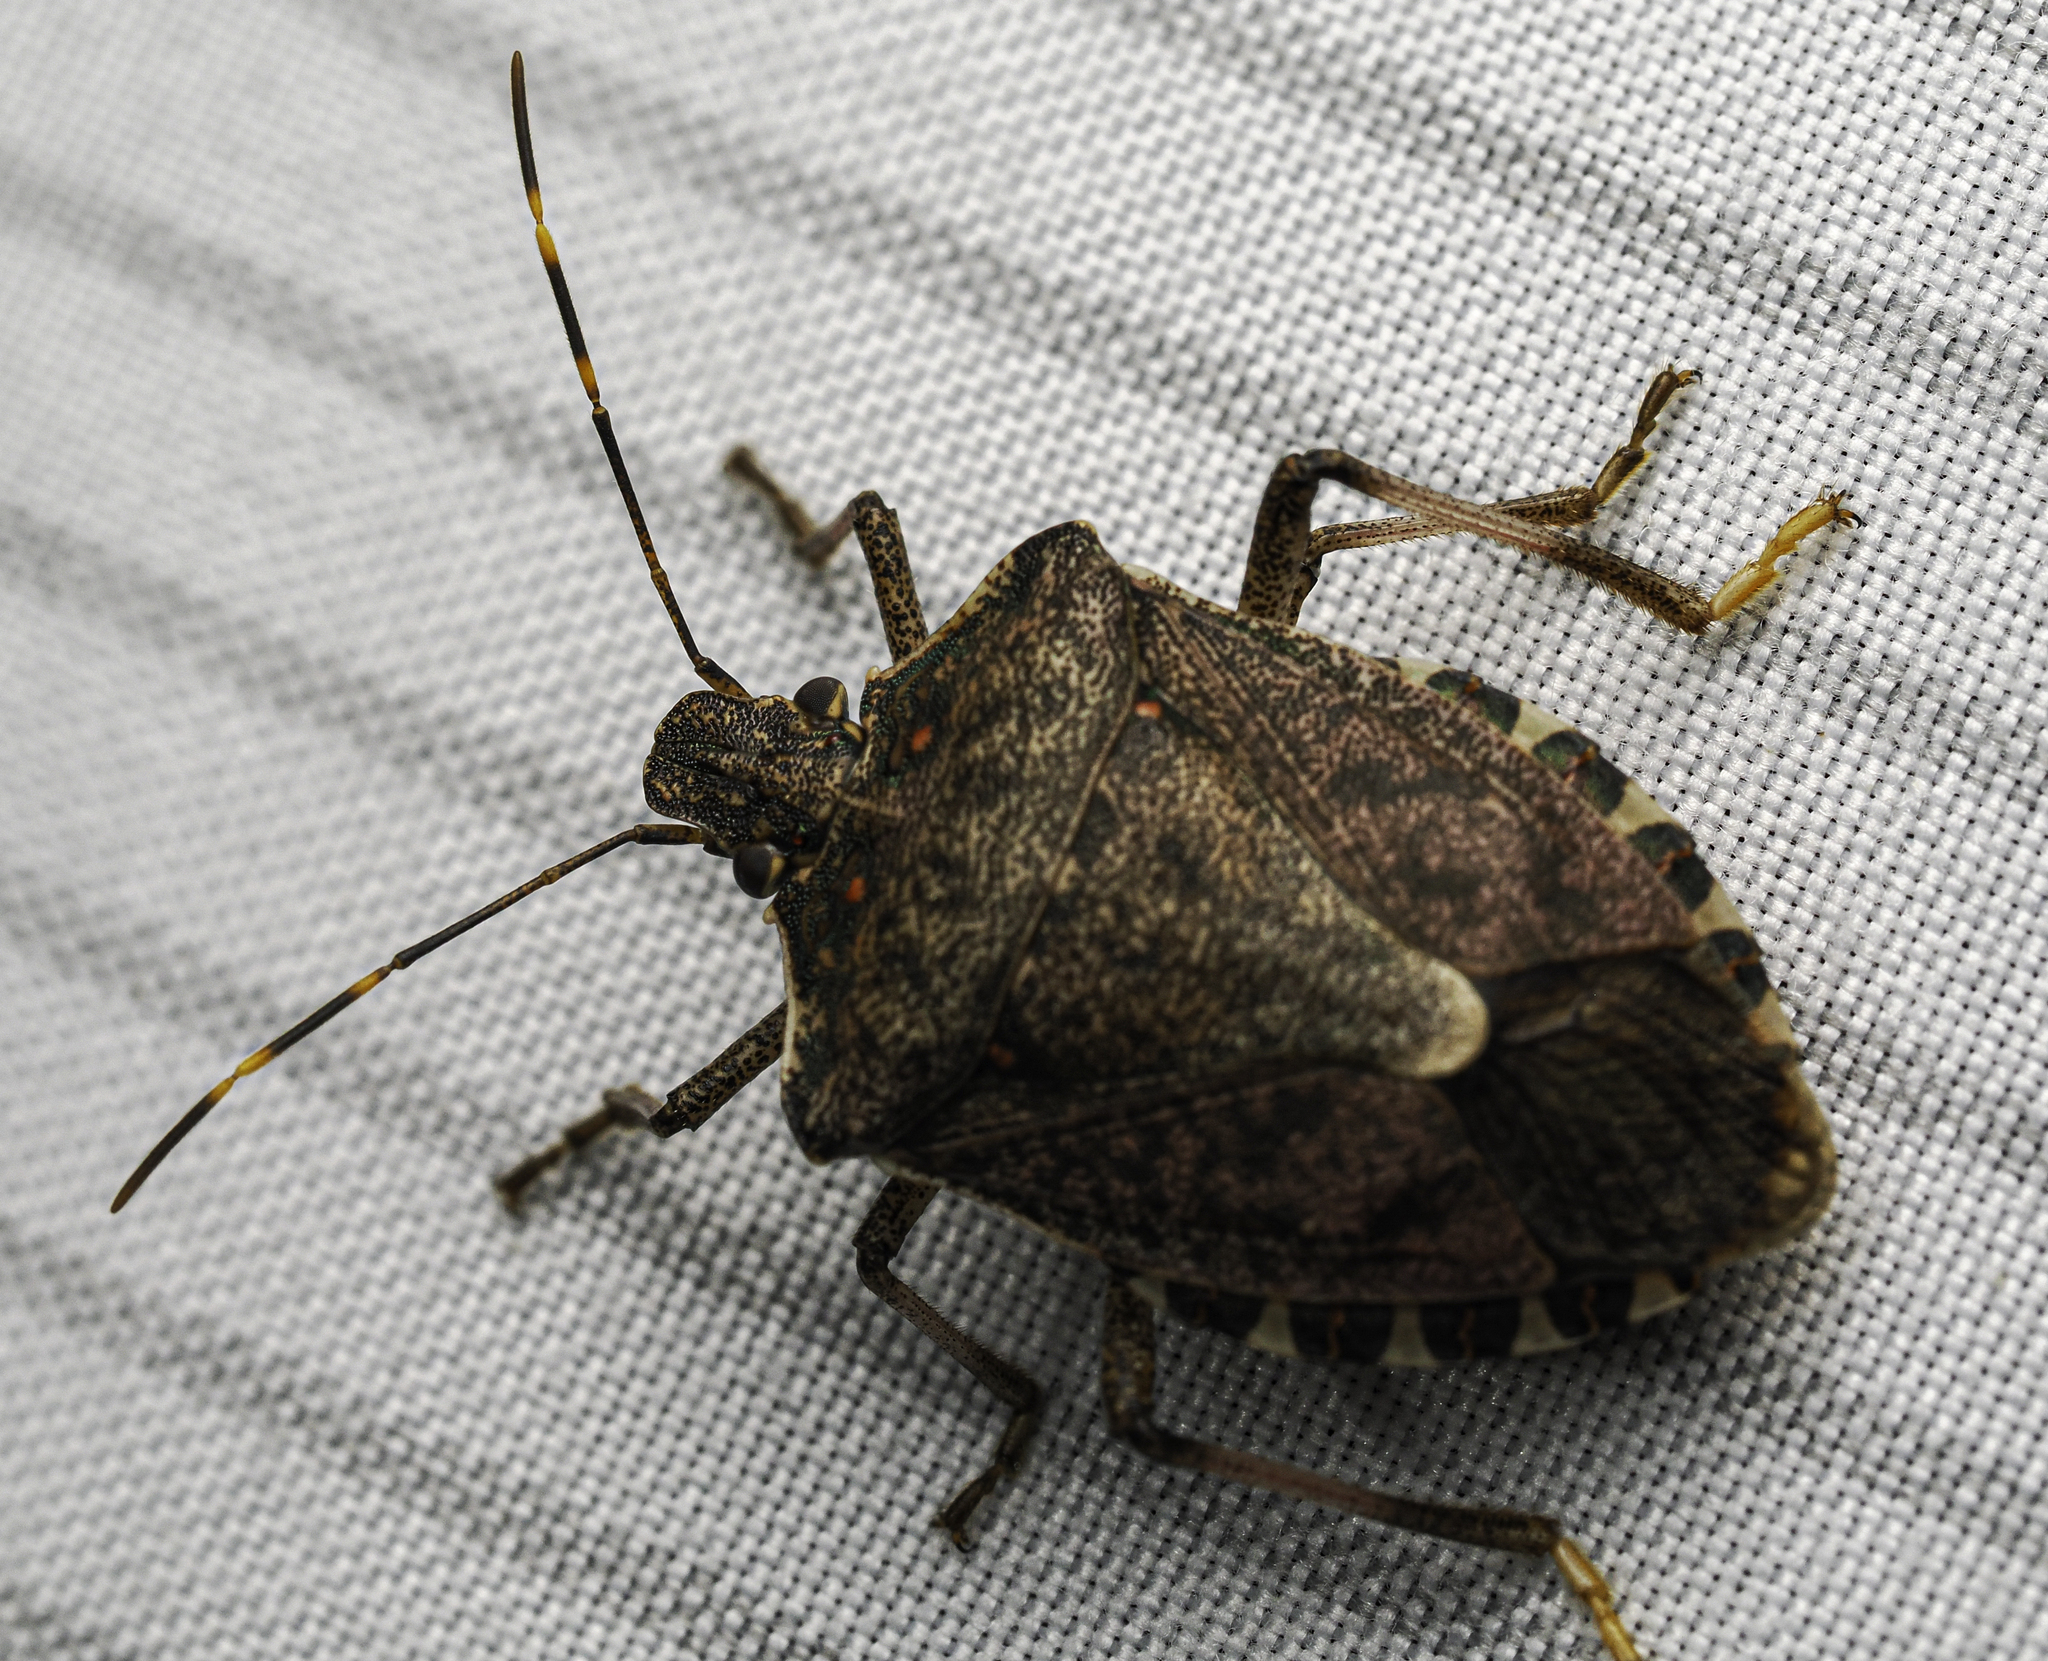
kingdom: Animalia
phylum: Arthropoda
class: Insecta
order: Hemiptera
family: Pentatomidae
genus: Halyomorpha
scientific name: Halyomorpha halys
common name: Brown marmorated stink bug
